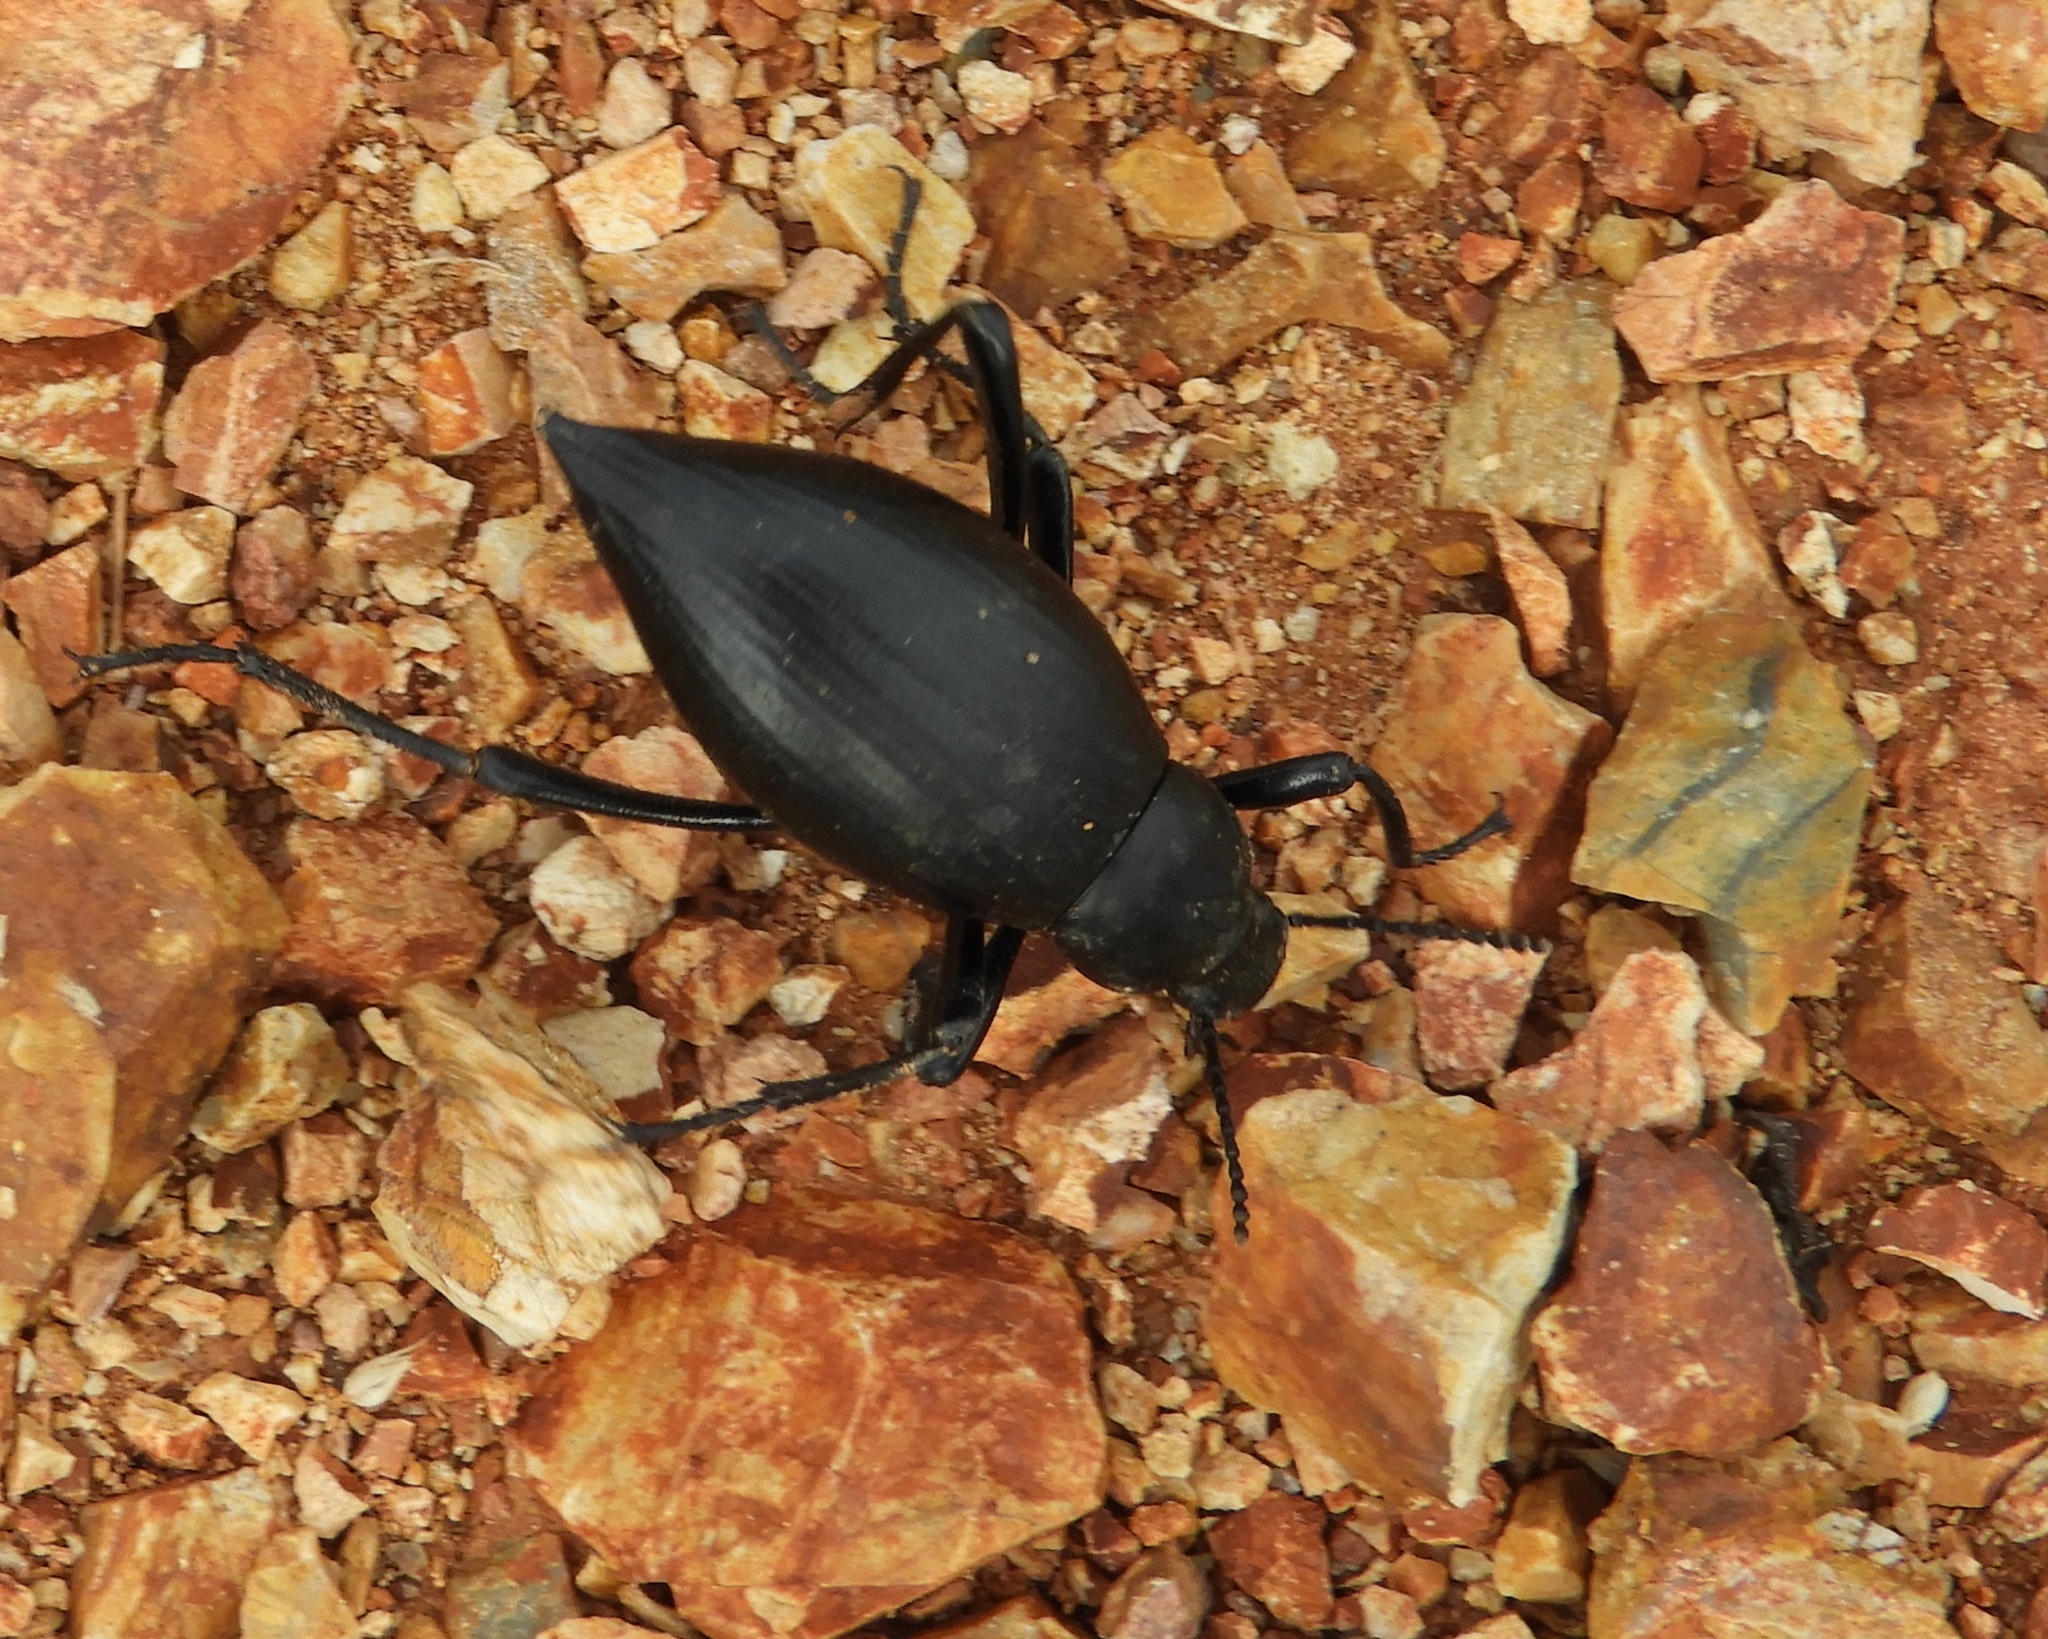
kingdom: Animalia
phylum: Arthropoda
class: Insecta
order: Coleoptera
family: Tenebrionidae
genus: Eleodes
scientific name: Eleodes eschscholtzii
